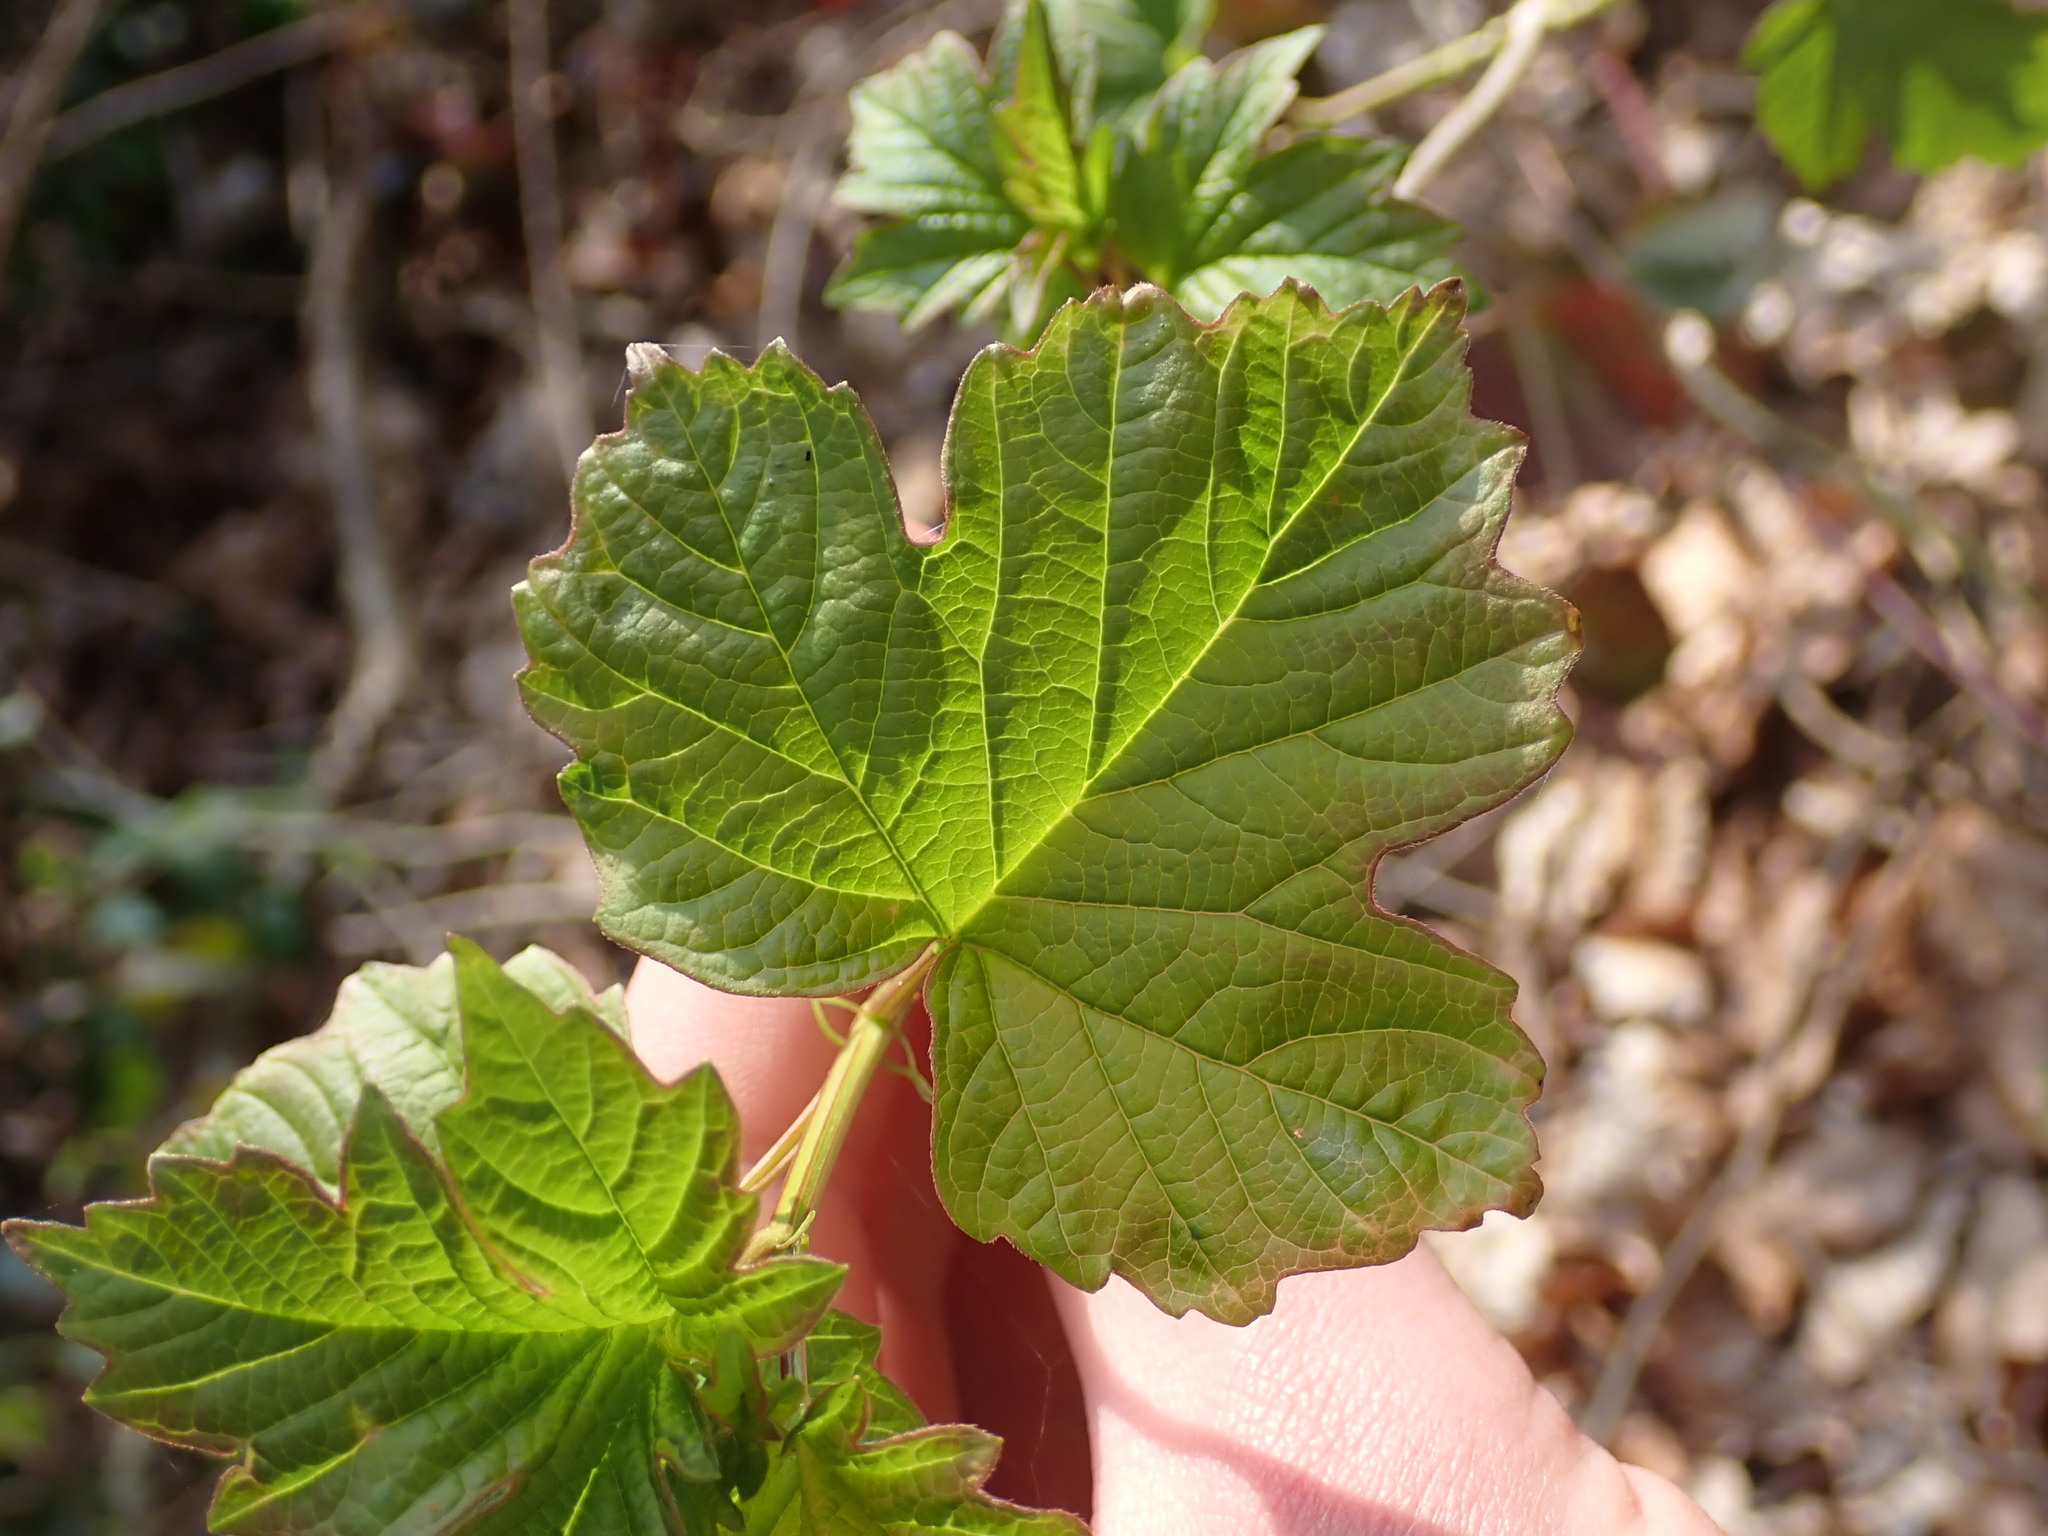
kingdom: Plantae
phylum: Tracheophyta
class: Magnoliopsida
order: Dipsacales
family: Viburnaceae
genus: Viburnum
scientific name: Viburnum opulus
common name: Guelder-rose
